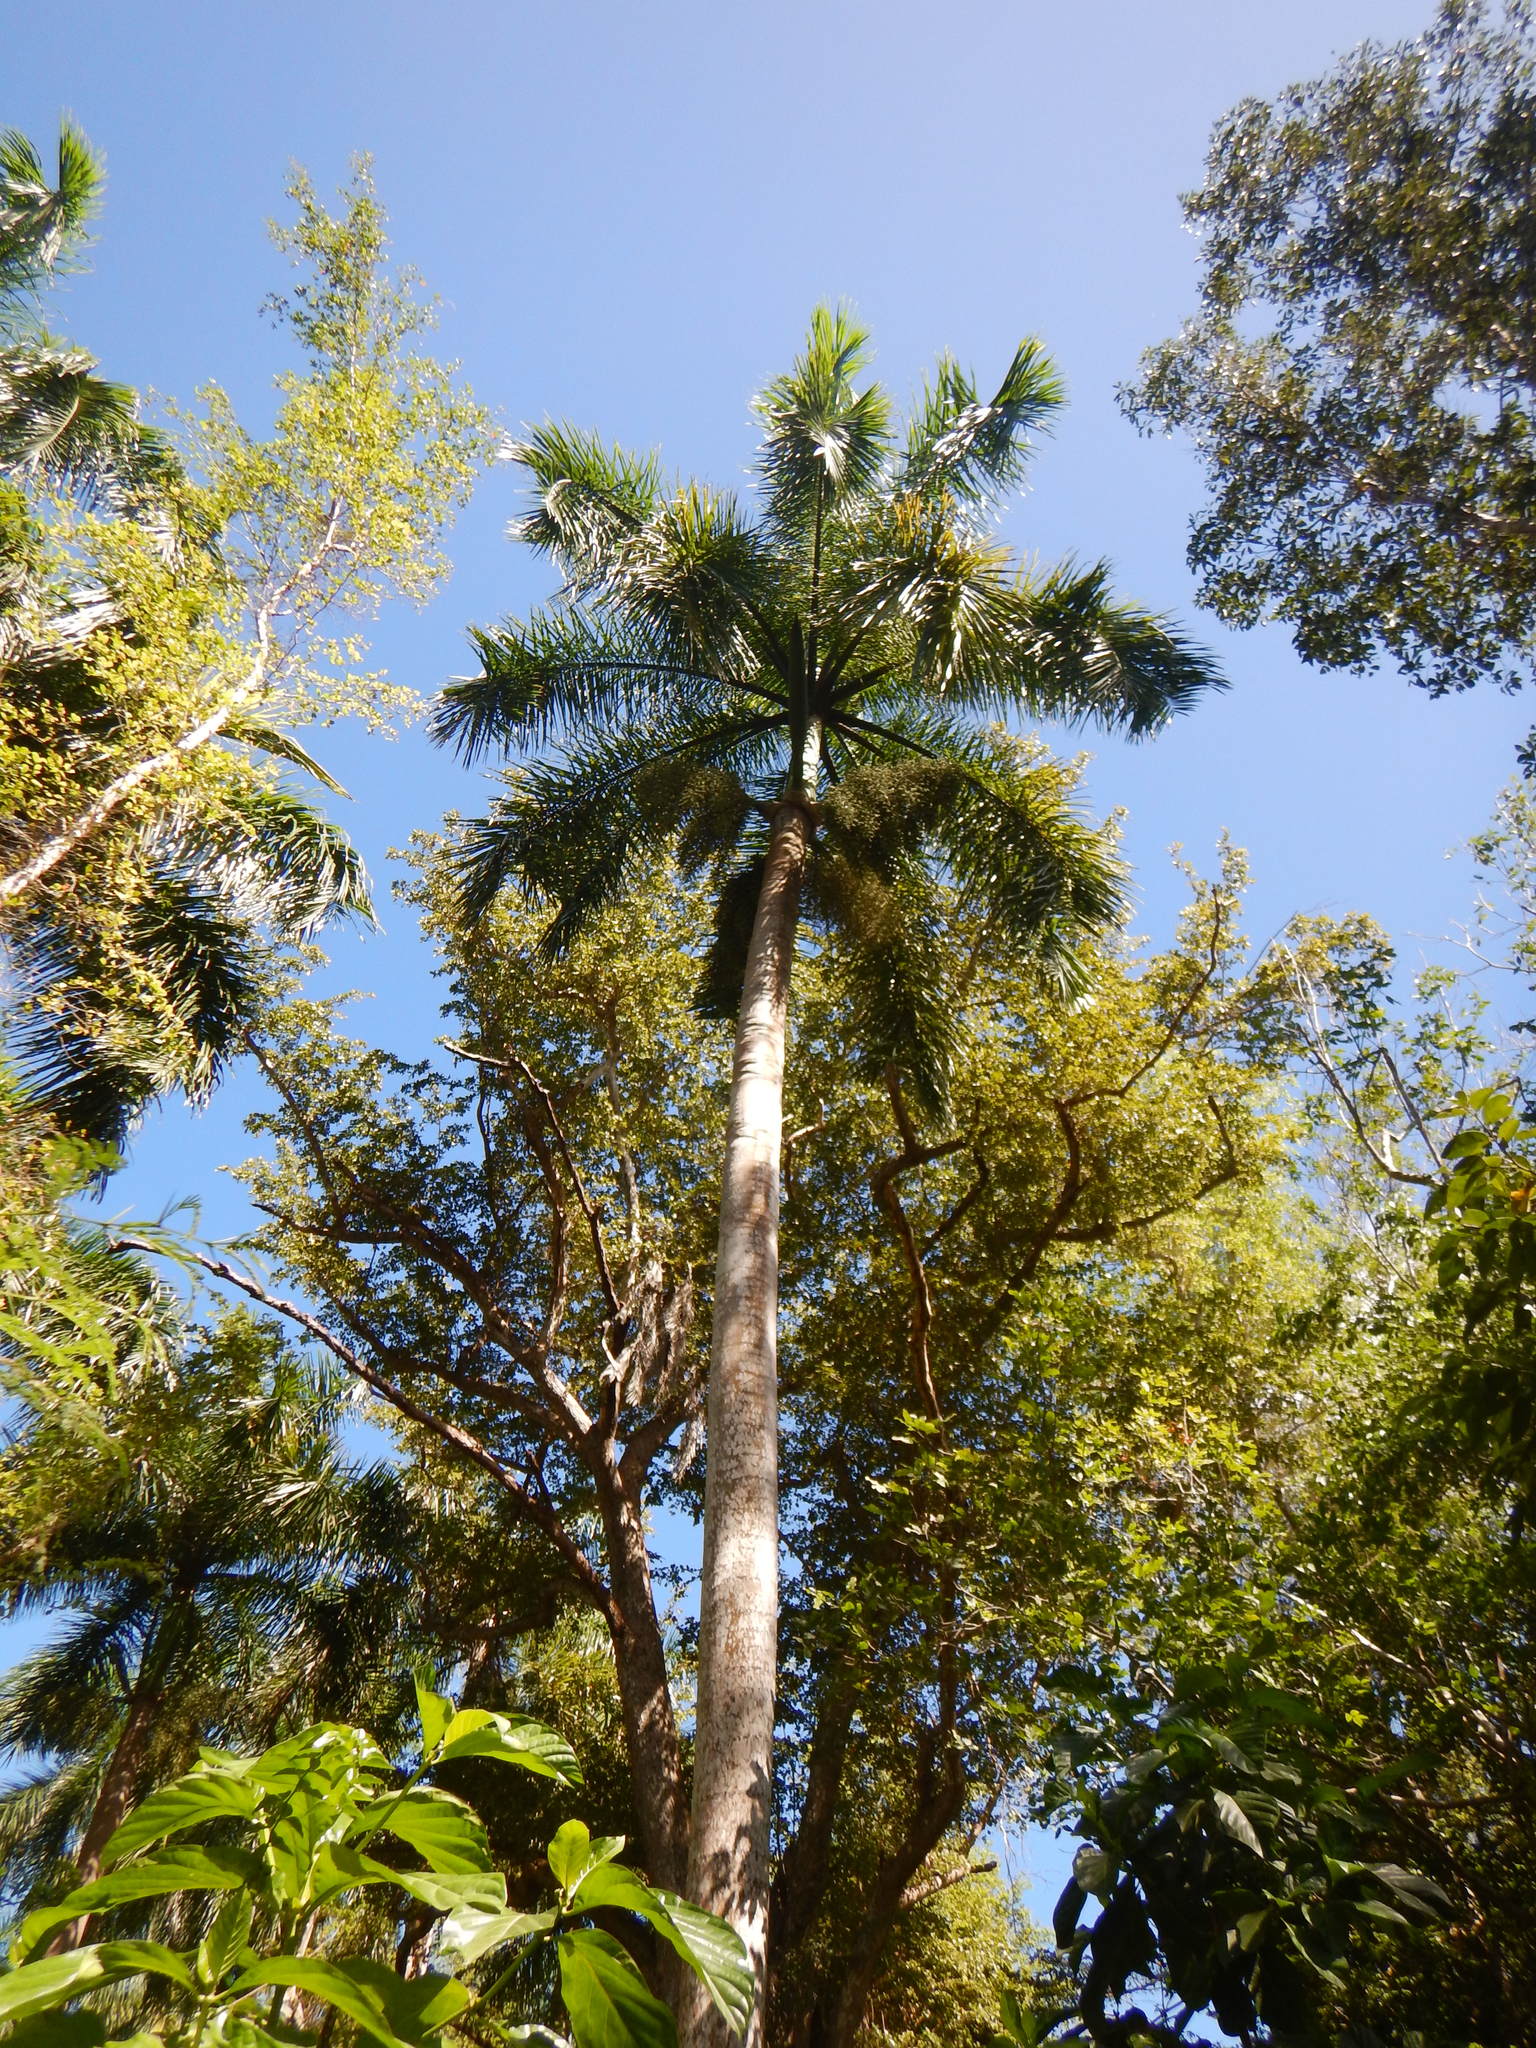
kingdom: Plantae
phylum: Tracheophyta
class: Liliopsida
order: Arecales
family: Arecaceae
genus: Roystonea
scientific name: Roystonea borinquena
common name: Puerto rican royal palm
